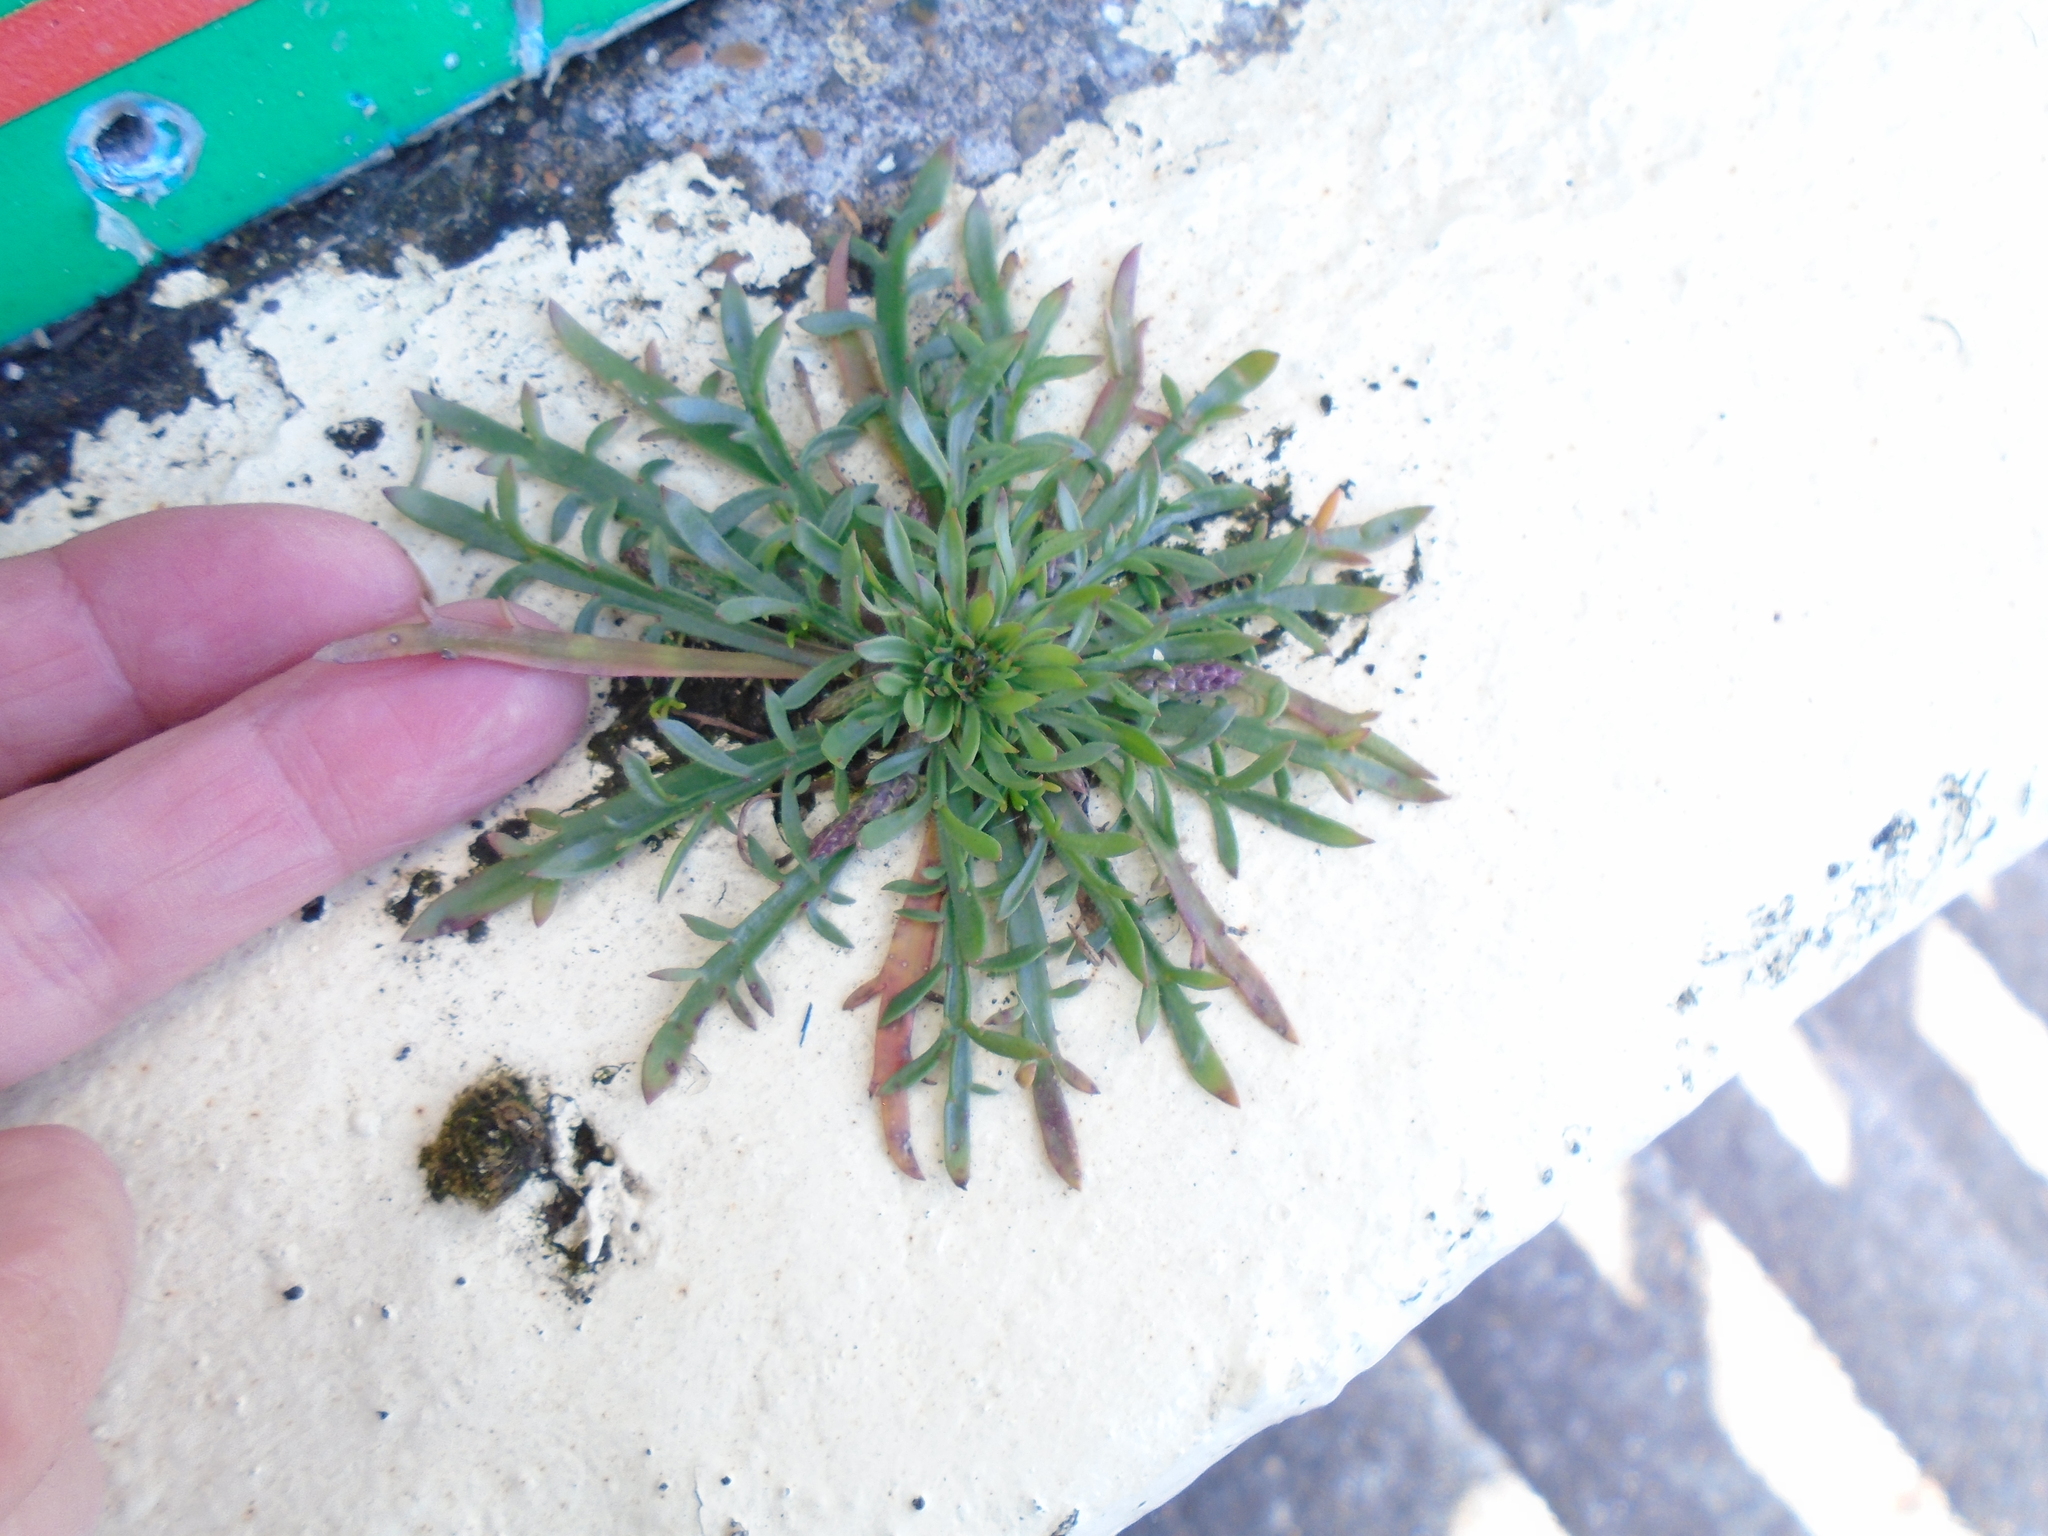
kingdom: Plantae
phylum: Tracheophyta
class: Magnoliopsida
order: Lamiales
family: Plantaginaceae
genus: Plantago
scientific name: Plantago coronopus
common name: Buck's-horn plantain
